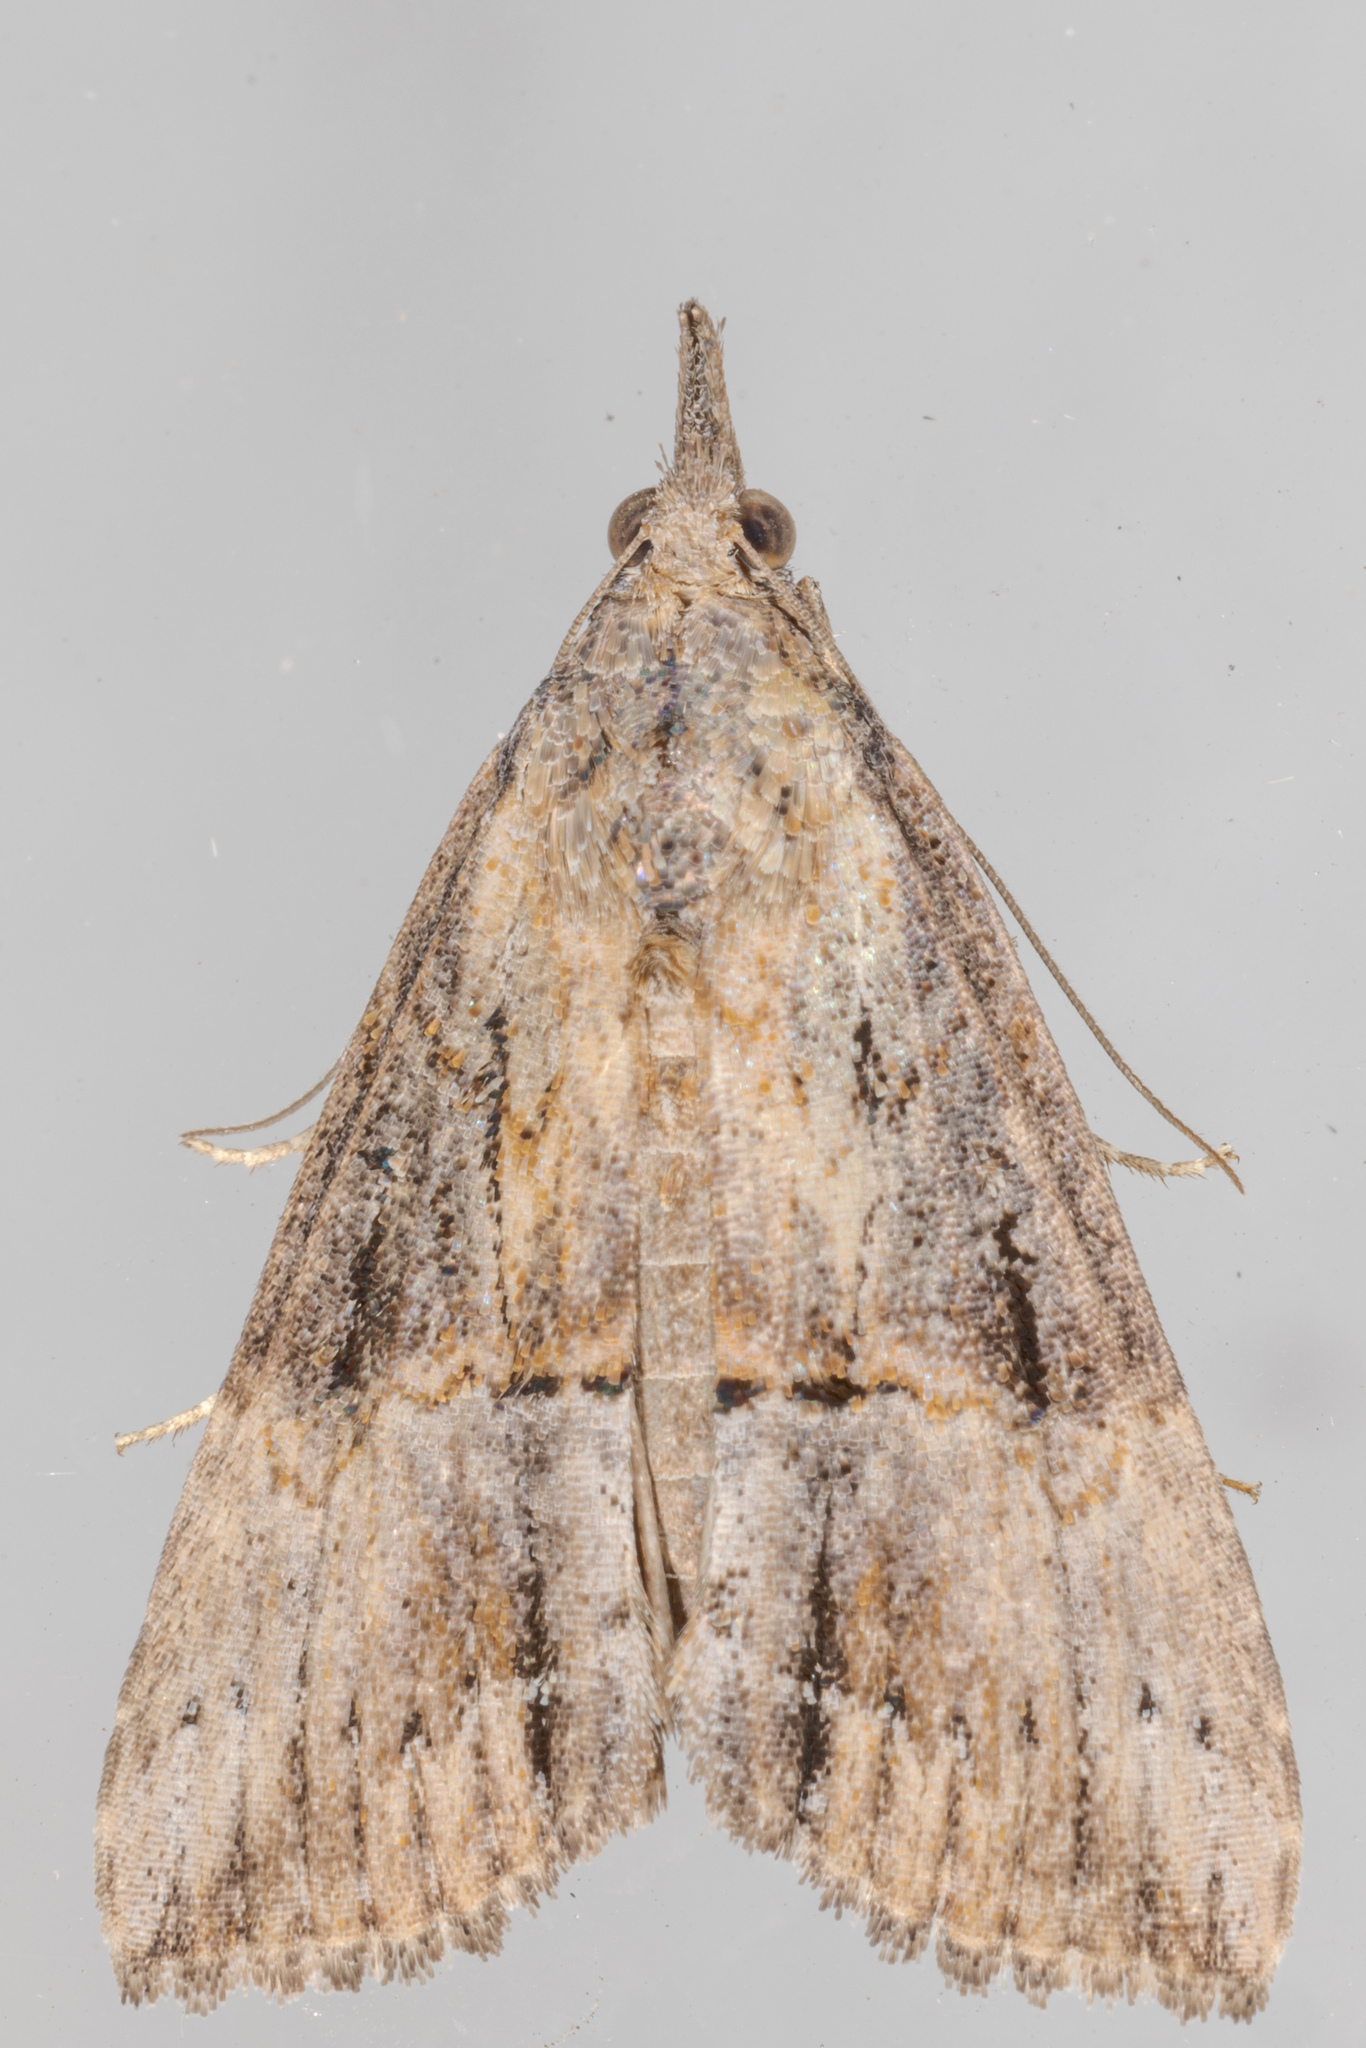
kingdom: Animalia
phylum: Arthropoda
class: Insecta
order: Lepidoptera
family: Erebidae
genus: Hypena
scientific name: Hypena scabra
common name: Green cloverworm
